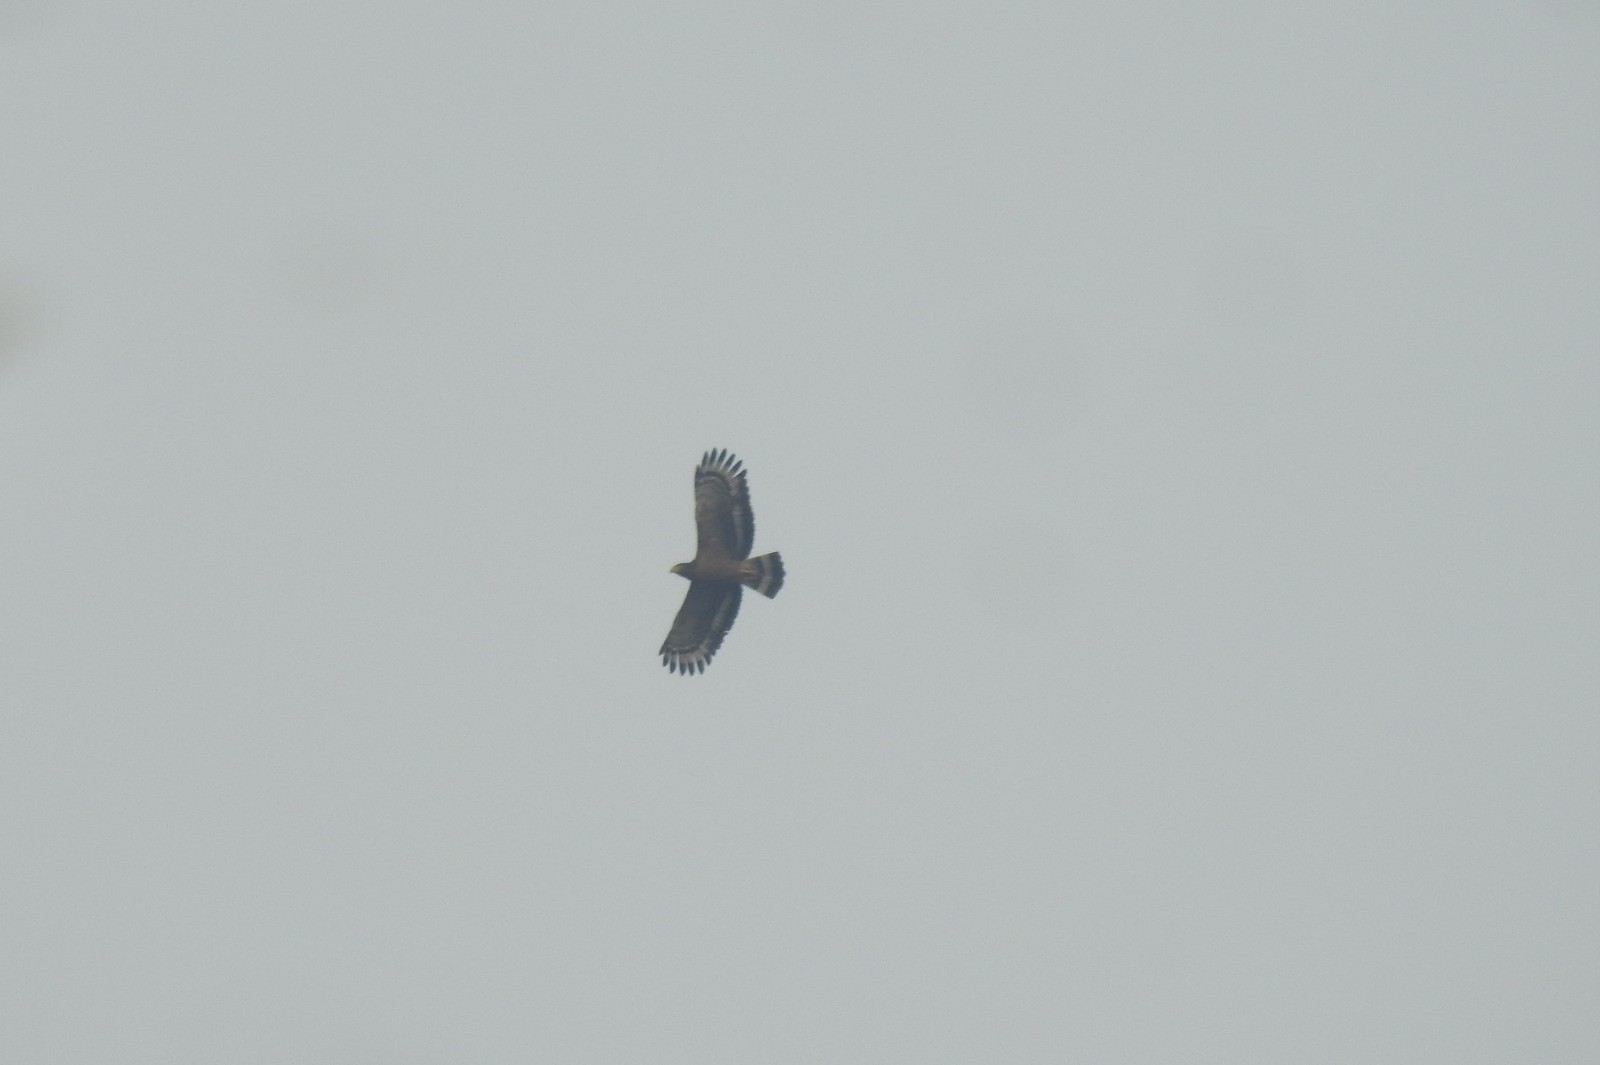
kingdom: Animalia
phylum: Chordata
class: Aves
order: Accipitriformes
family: Accipitridae
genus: Spilornis
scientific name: Spilornis cheela
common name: Crested serpent eagle
